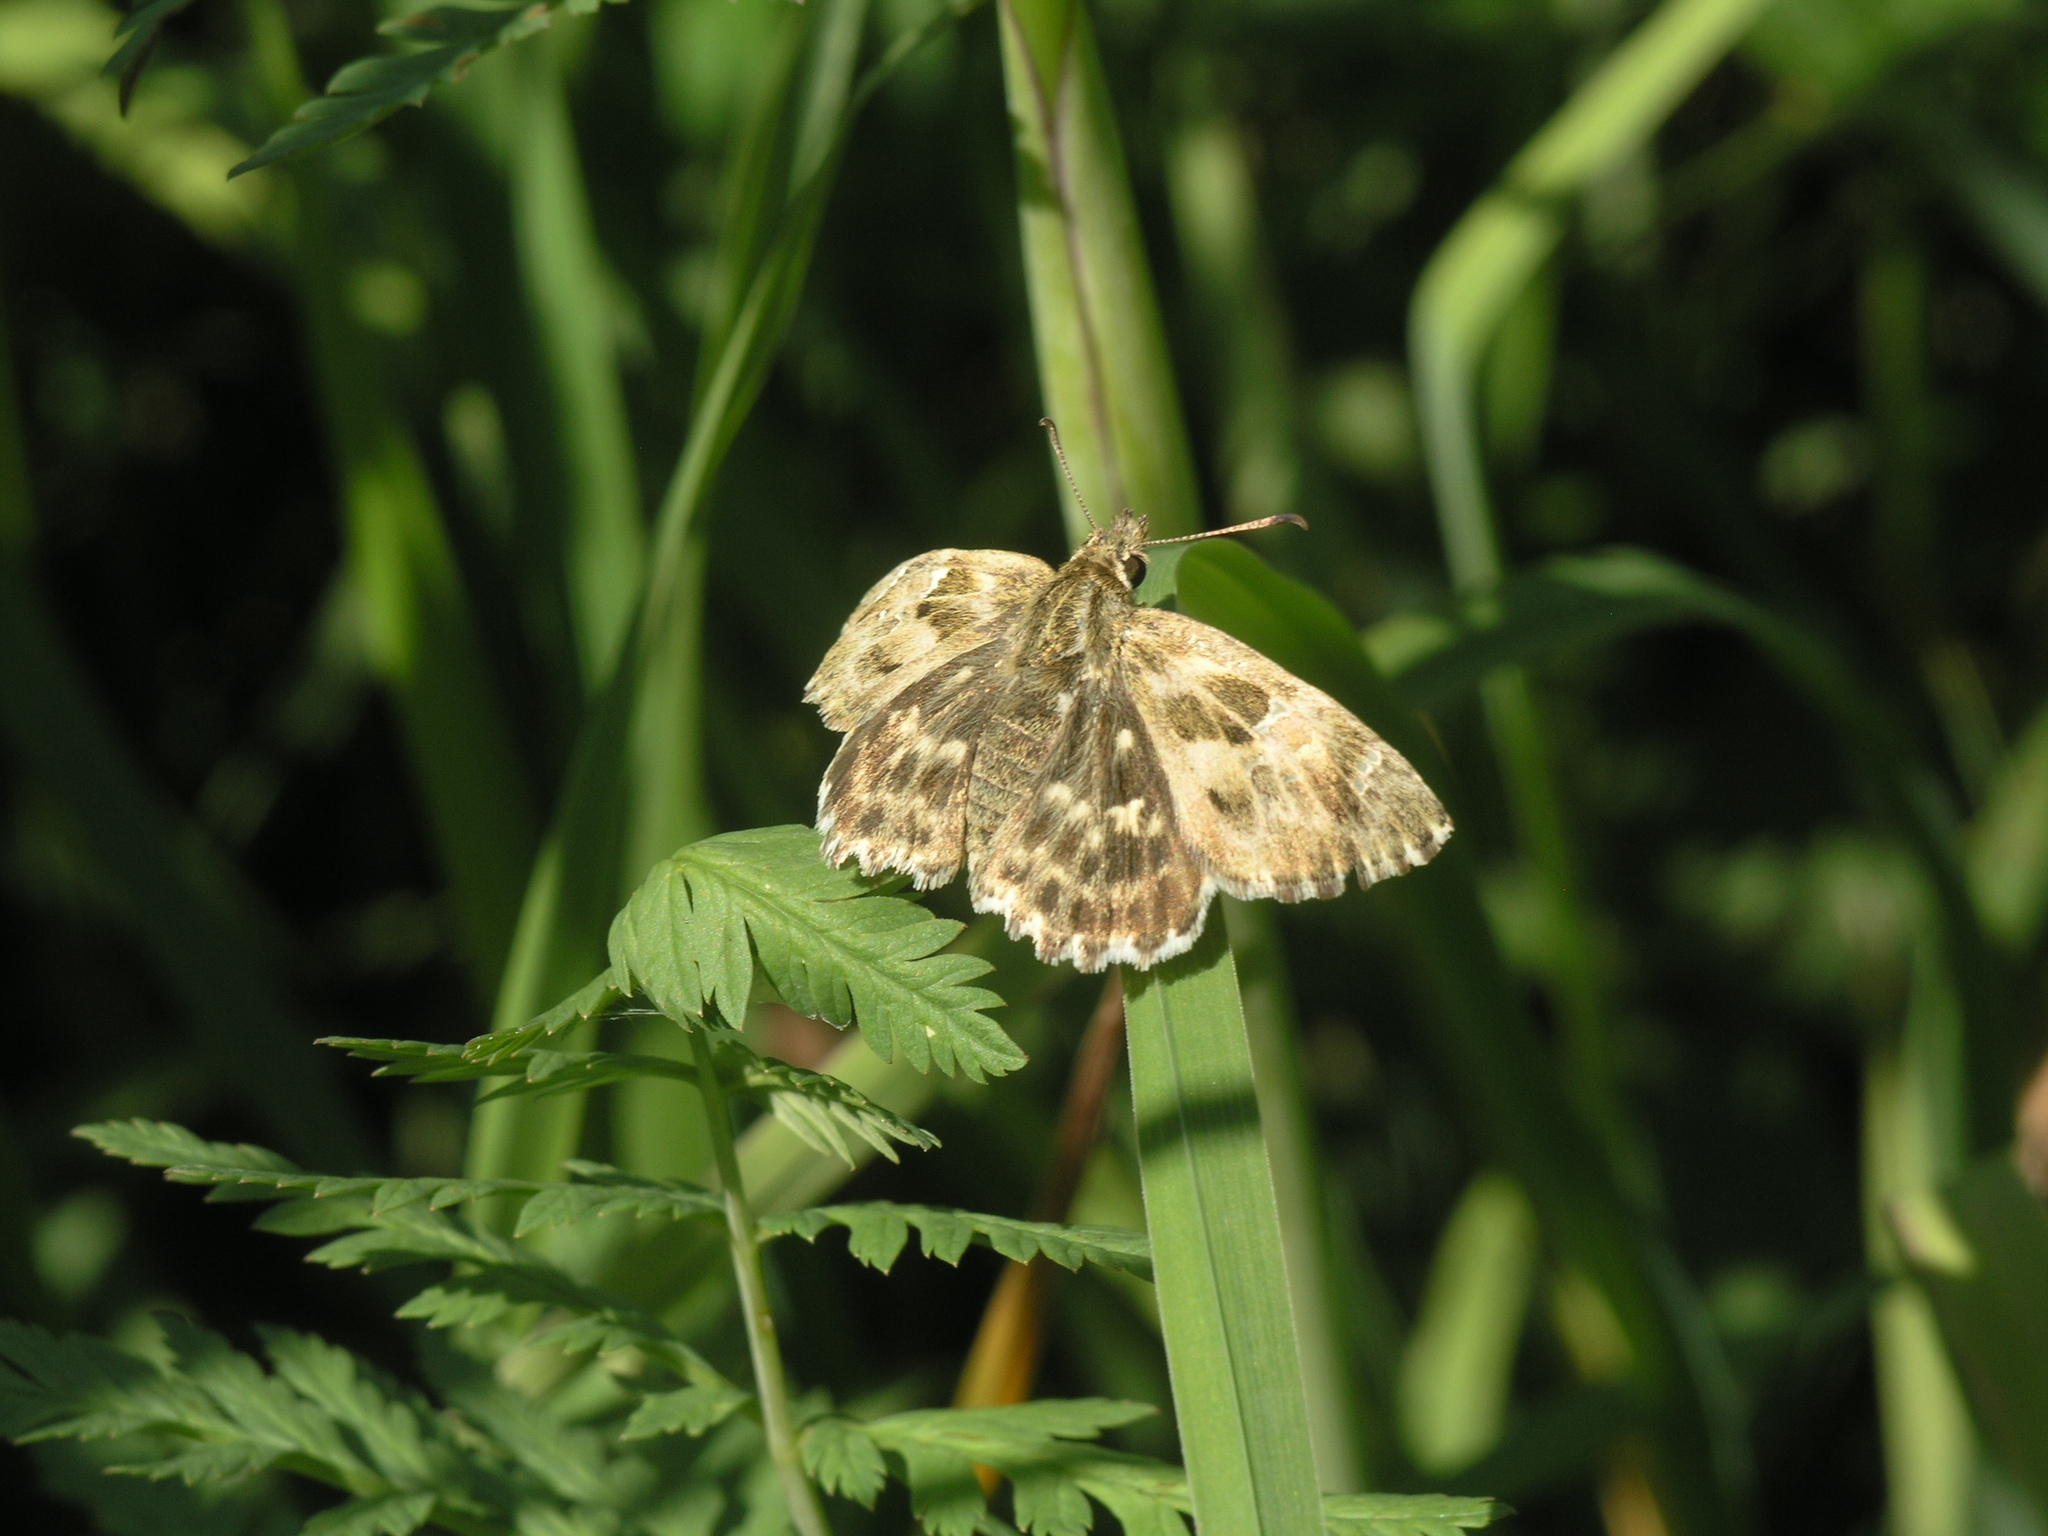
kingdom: Animalia
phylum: Arthropoda
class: Insecta
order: Lepidoptera
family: Hesperiidae
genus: Carcharodus
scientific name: Carcharodus alceae
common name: Mallow skipper
